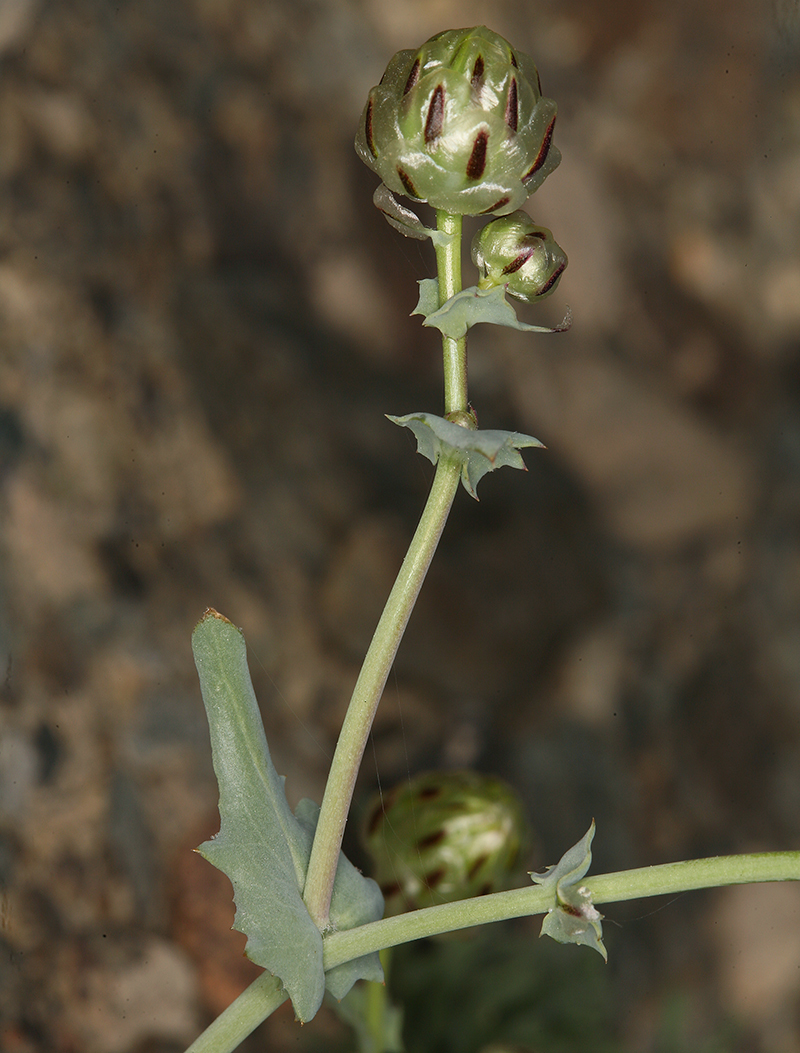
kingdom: Plantae
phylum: Tracheophyta
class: Magnoliopsida
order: Asterales
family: Asteraceae
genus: Malacothrix
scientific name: Malacothrix coulteri
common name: Snake's-head
